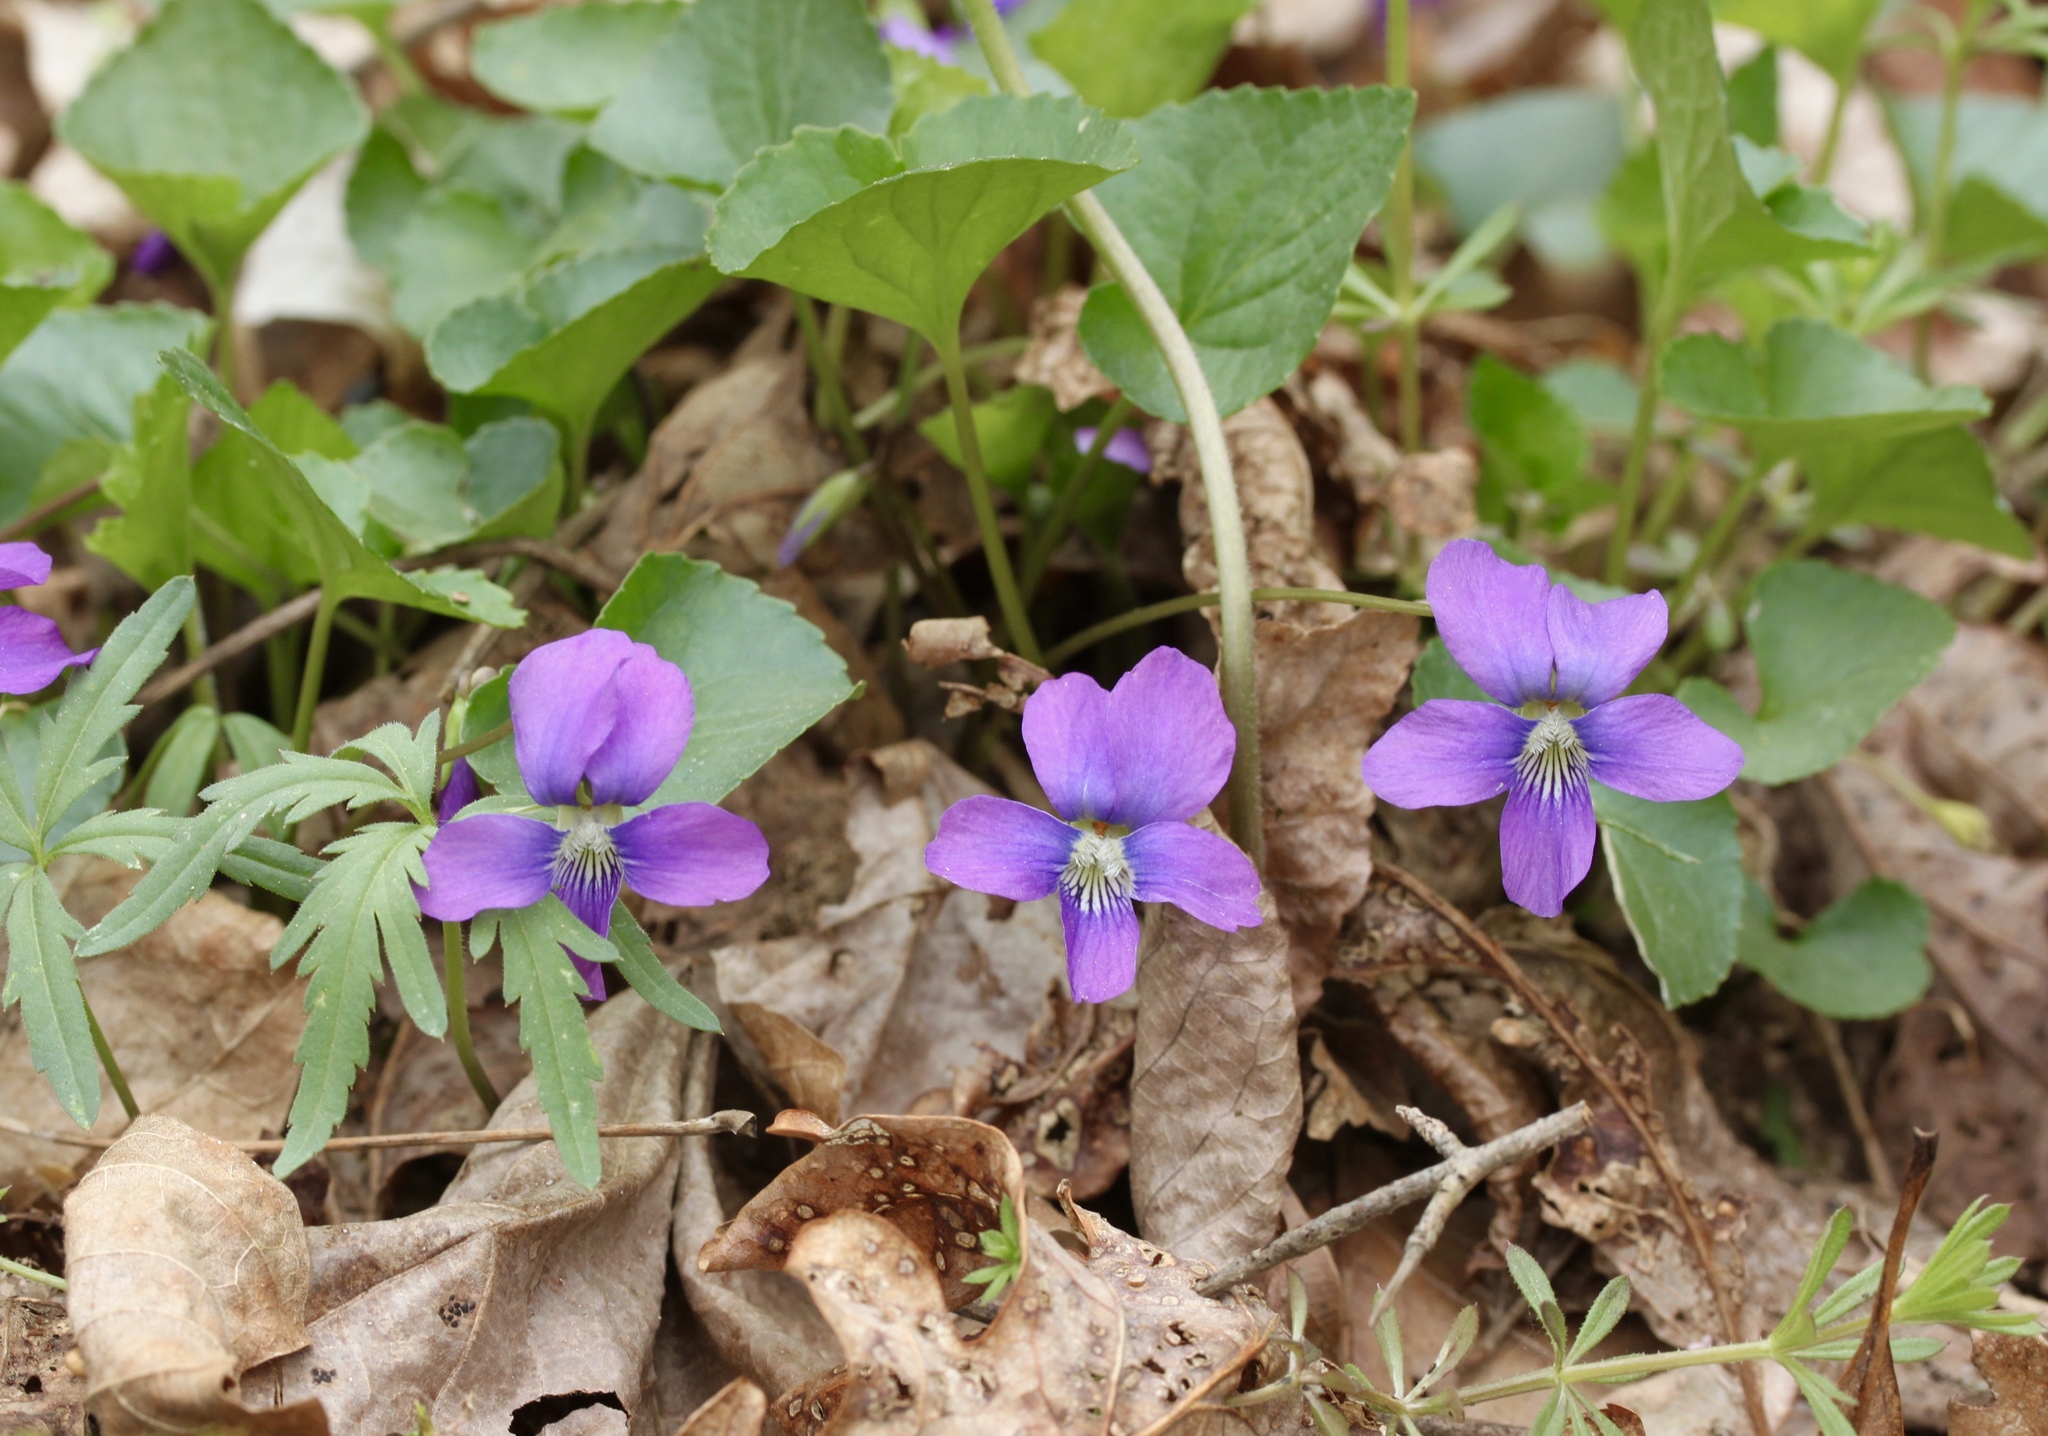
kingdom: Plantae
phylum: Tracheophyta
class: Magnoliopsida
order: Malpighiales
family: Violaceae
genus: Viola
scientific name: Viola sororia
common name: Dooryard violet
